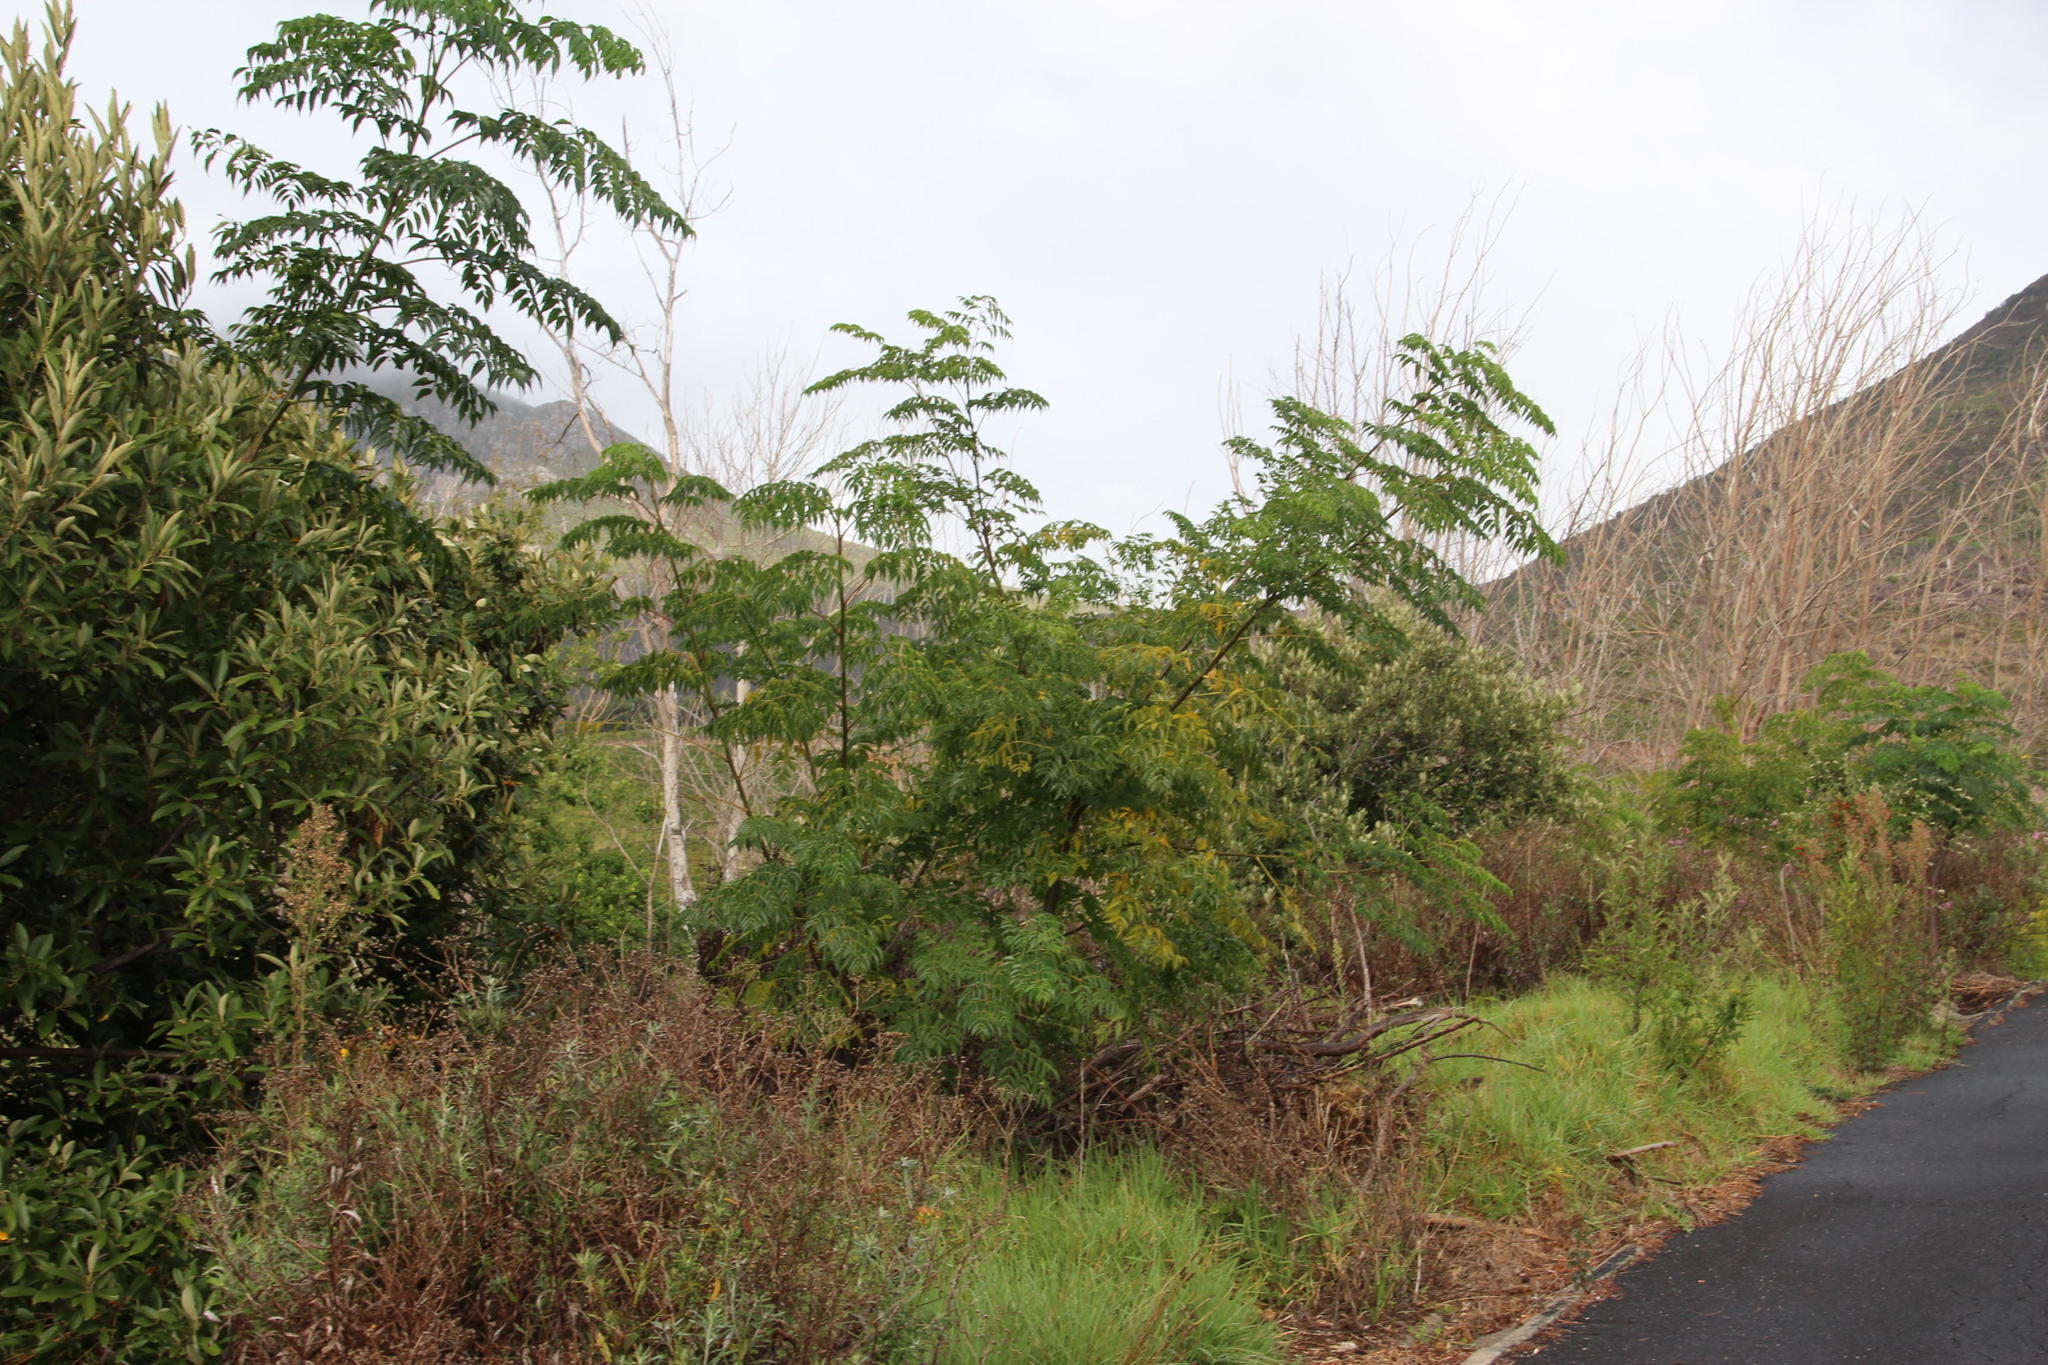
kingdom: Plantae
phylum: Tracheophyta
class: Magnoliopsida
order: Sapindales
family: Meliaceae
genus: Melia
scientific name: Melia azedarach
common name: Chinaberrytree
